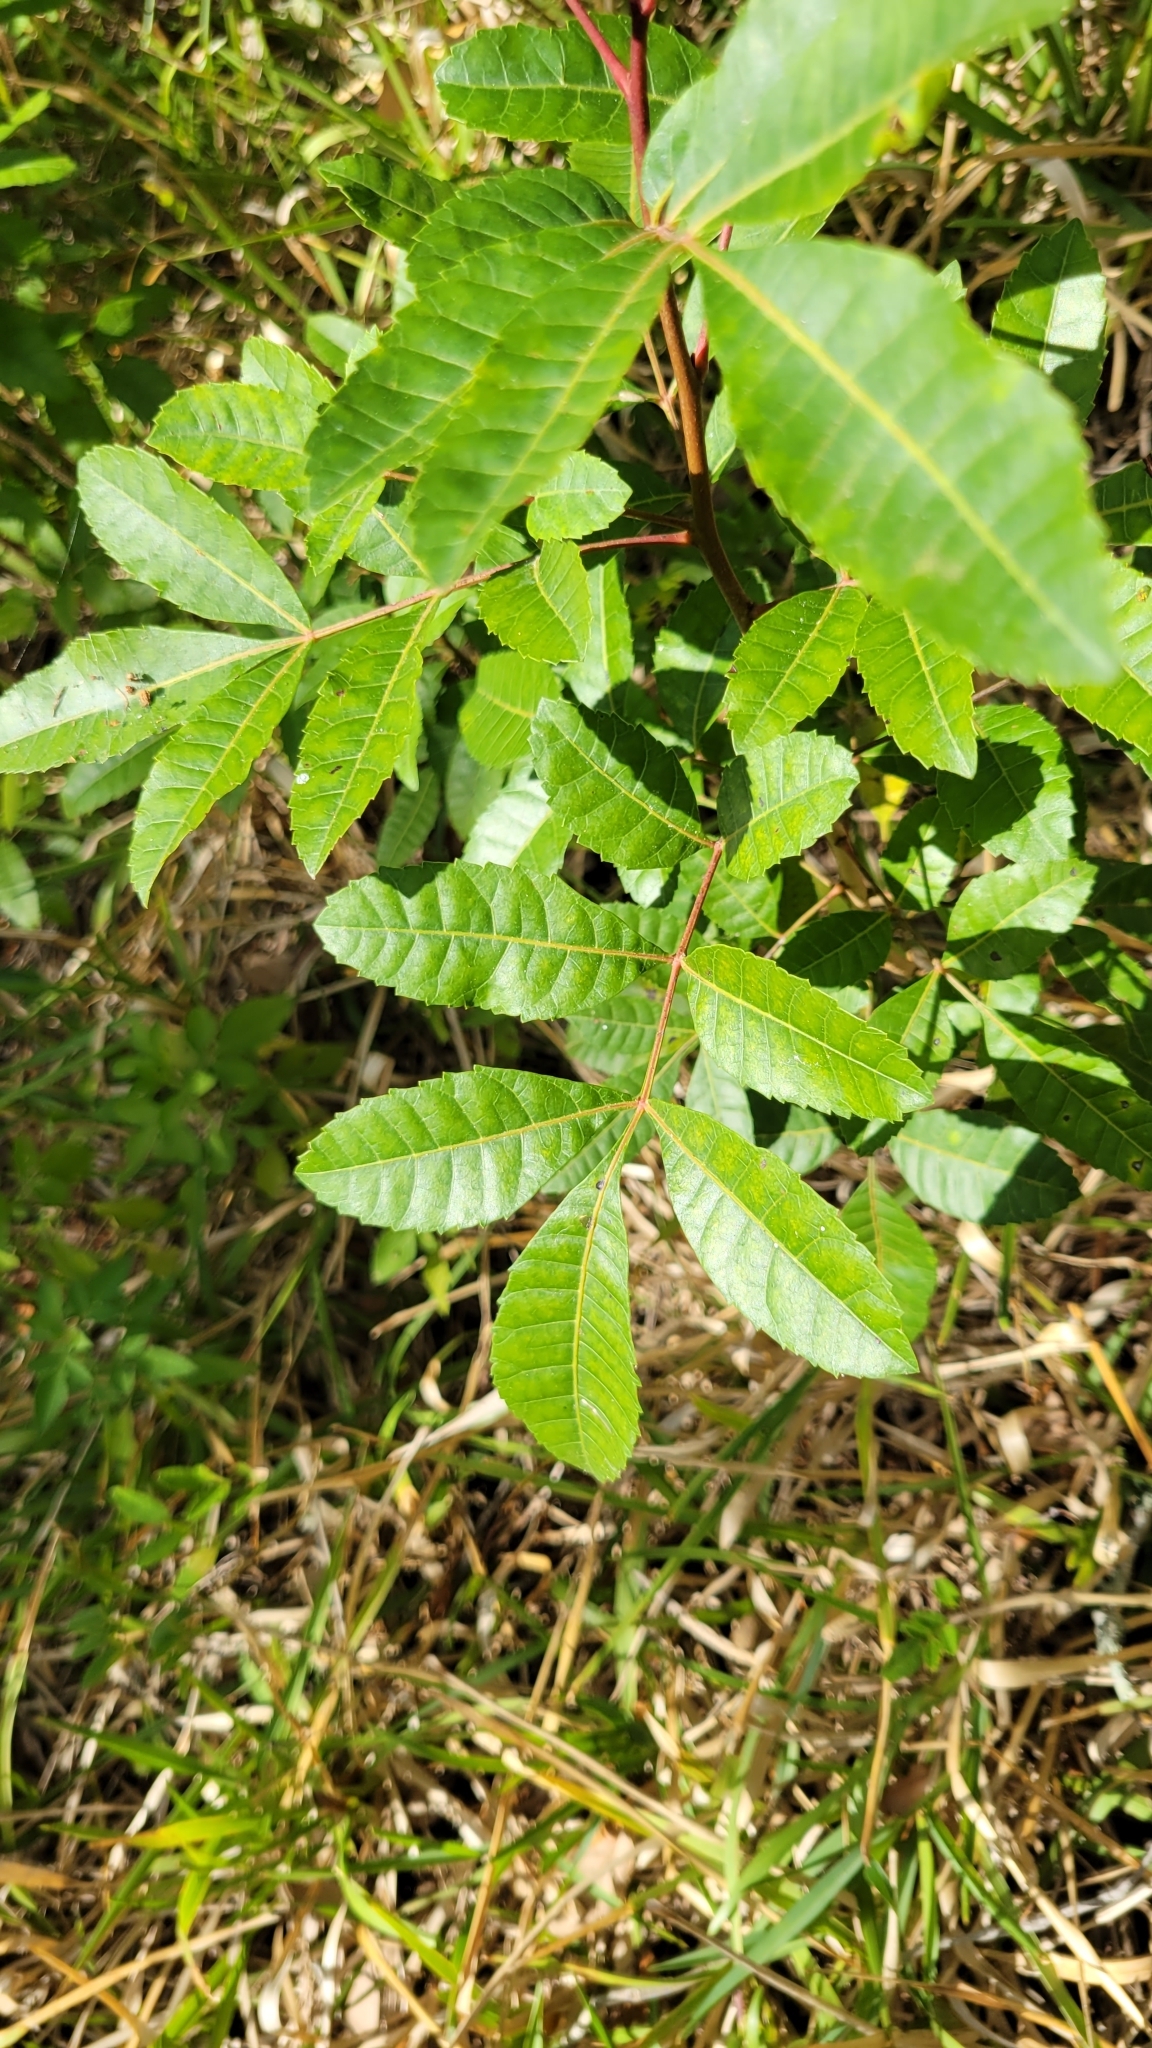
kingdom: Plantae
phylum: Tracheophyta
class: Magnoliopsida
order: Sapindales
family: Anacardiaceae
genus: Schinus
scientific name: Schinus terebinthifolia
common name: Brazilian peppertree
